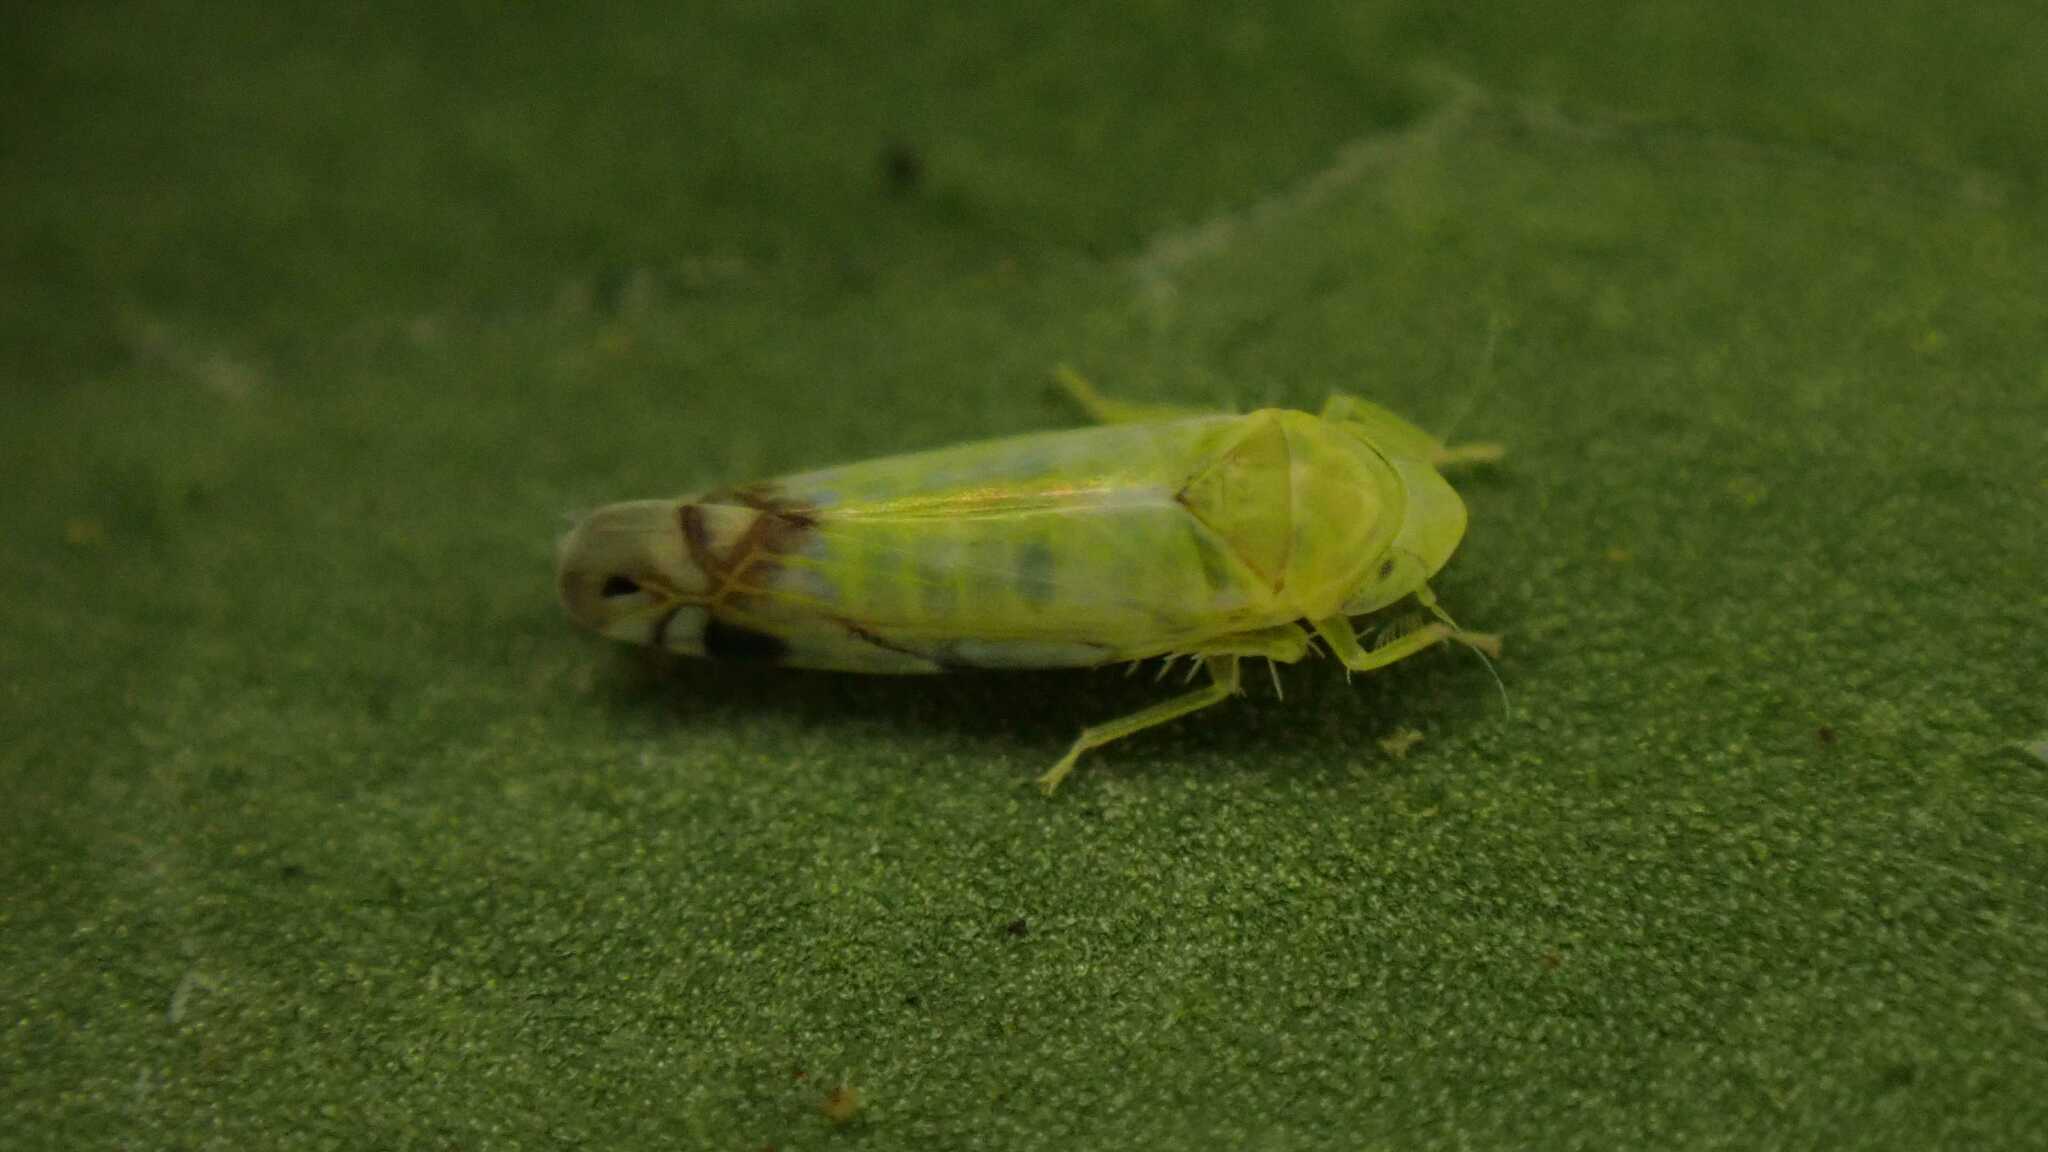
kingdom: Animalia
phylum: Arthropoda
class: Insecta
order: Hemiptera
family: Cicadellidae
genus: Zyginella
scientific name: Zyginella pulchra
